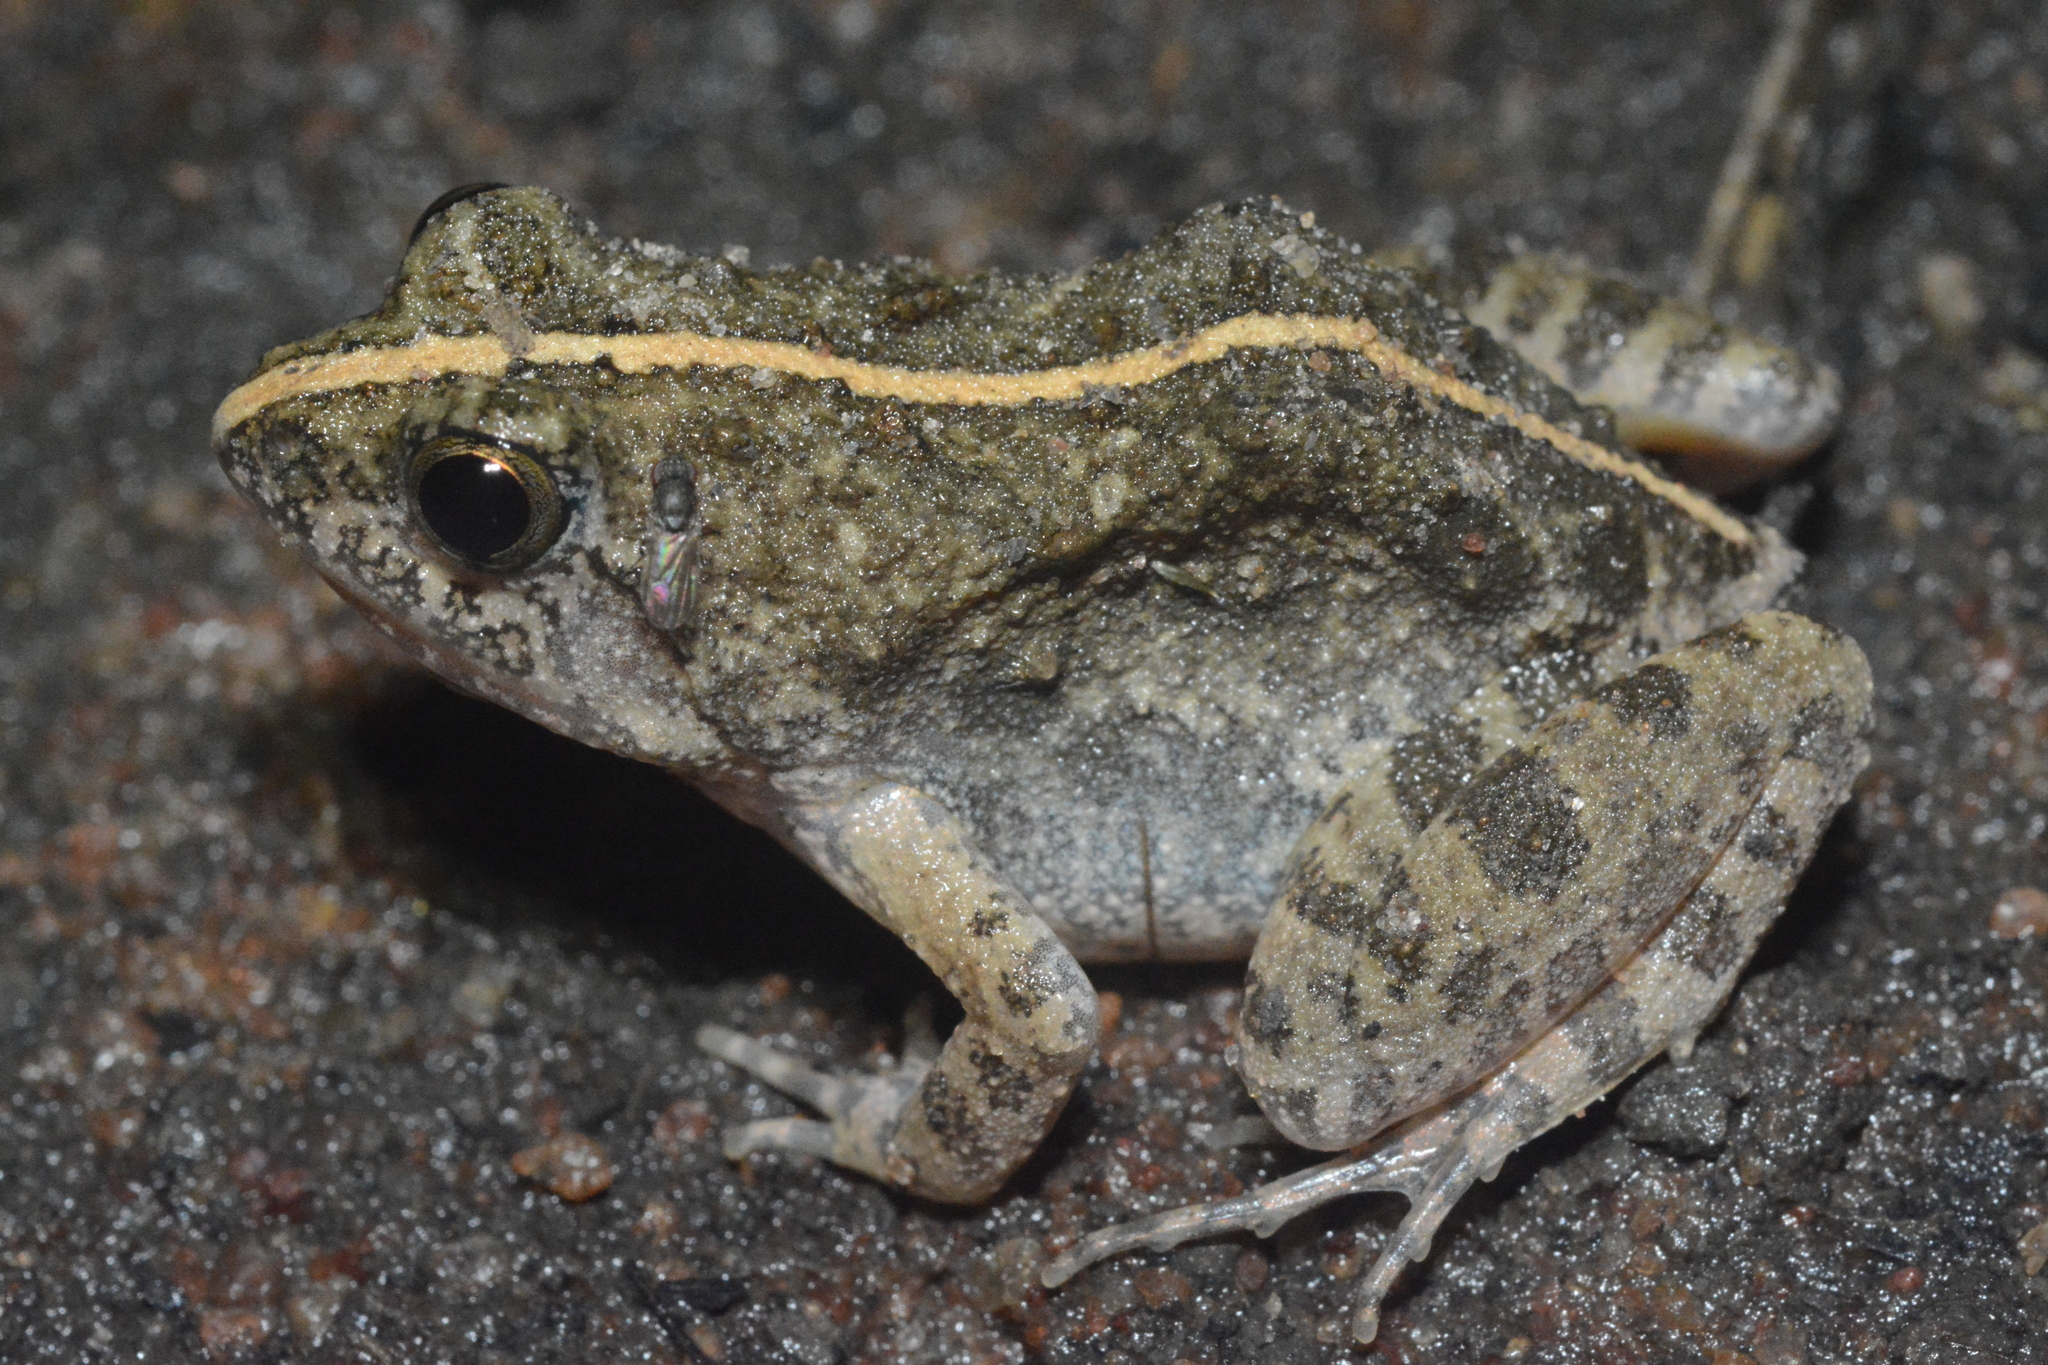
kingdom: Animalia
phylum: Chordata
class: Amphibia
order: Anura
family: Phrynobatrachidae
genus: Phrynobatrachus
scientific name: Phrynobatrachus natalensis
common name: Snoring puddle frog
